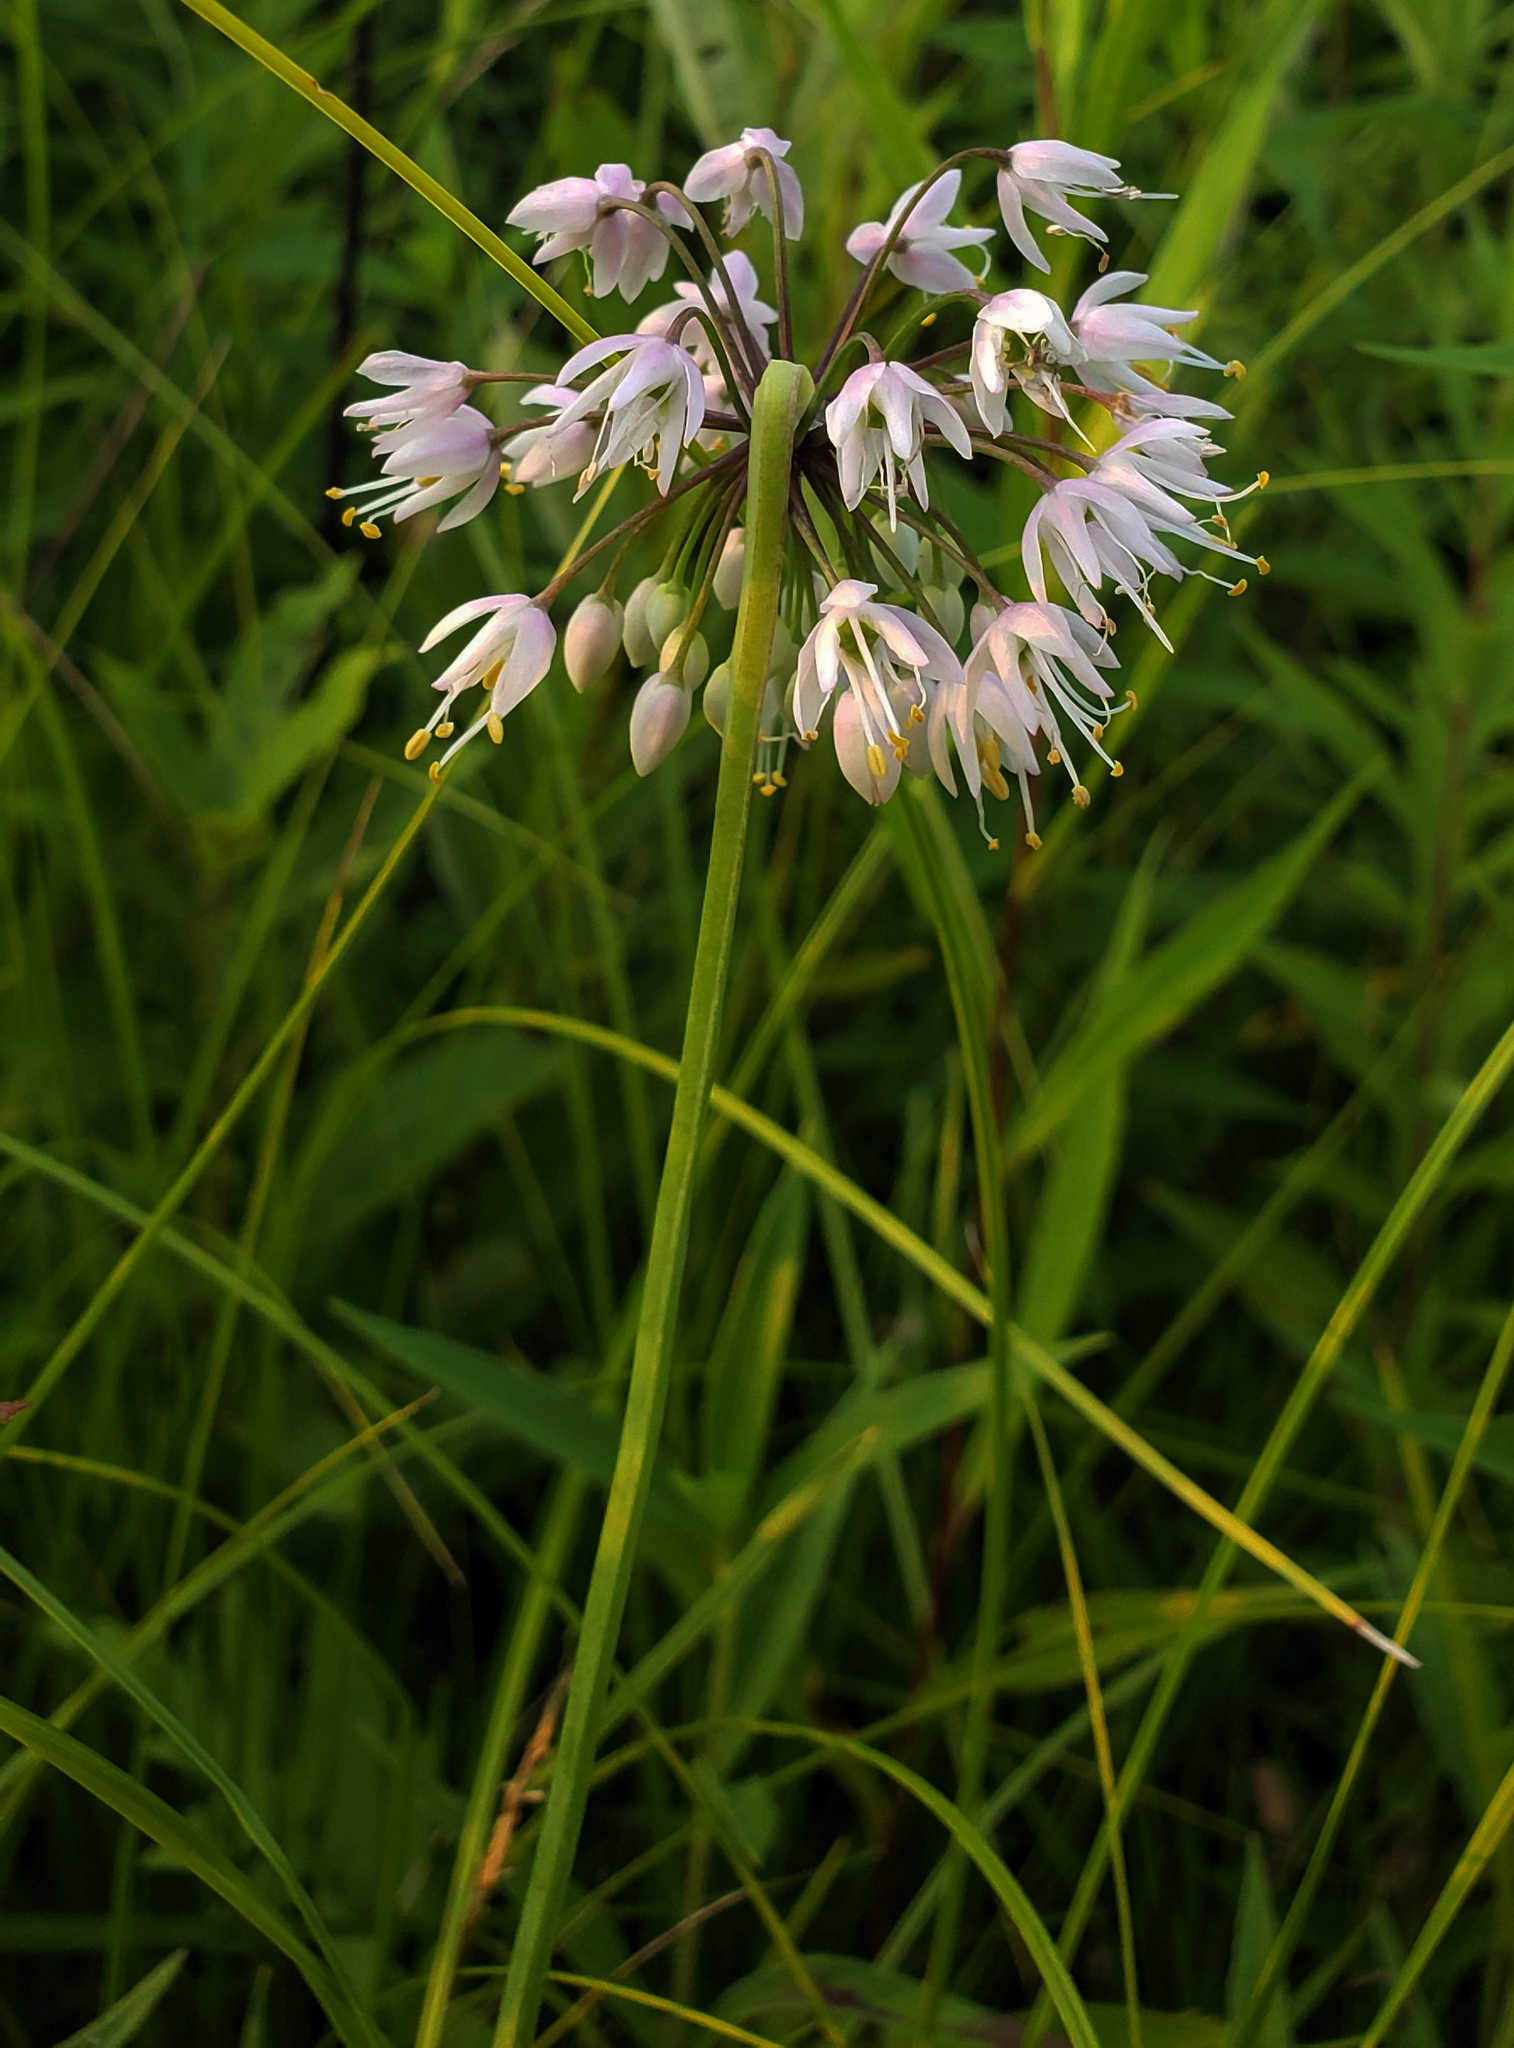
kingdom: Plantae
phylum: Tracheophyta
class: Liliopsida
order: Asparagales
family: Amaryllidaceae
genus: Allium
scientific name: Allium cernuum
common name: Nodding onion
